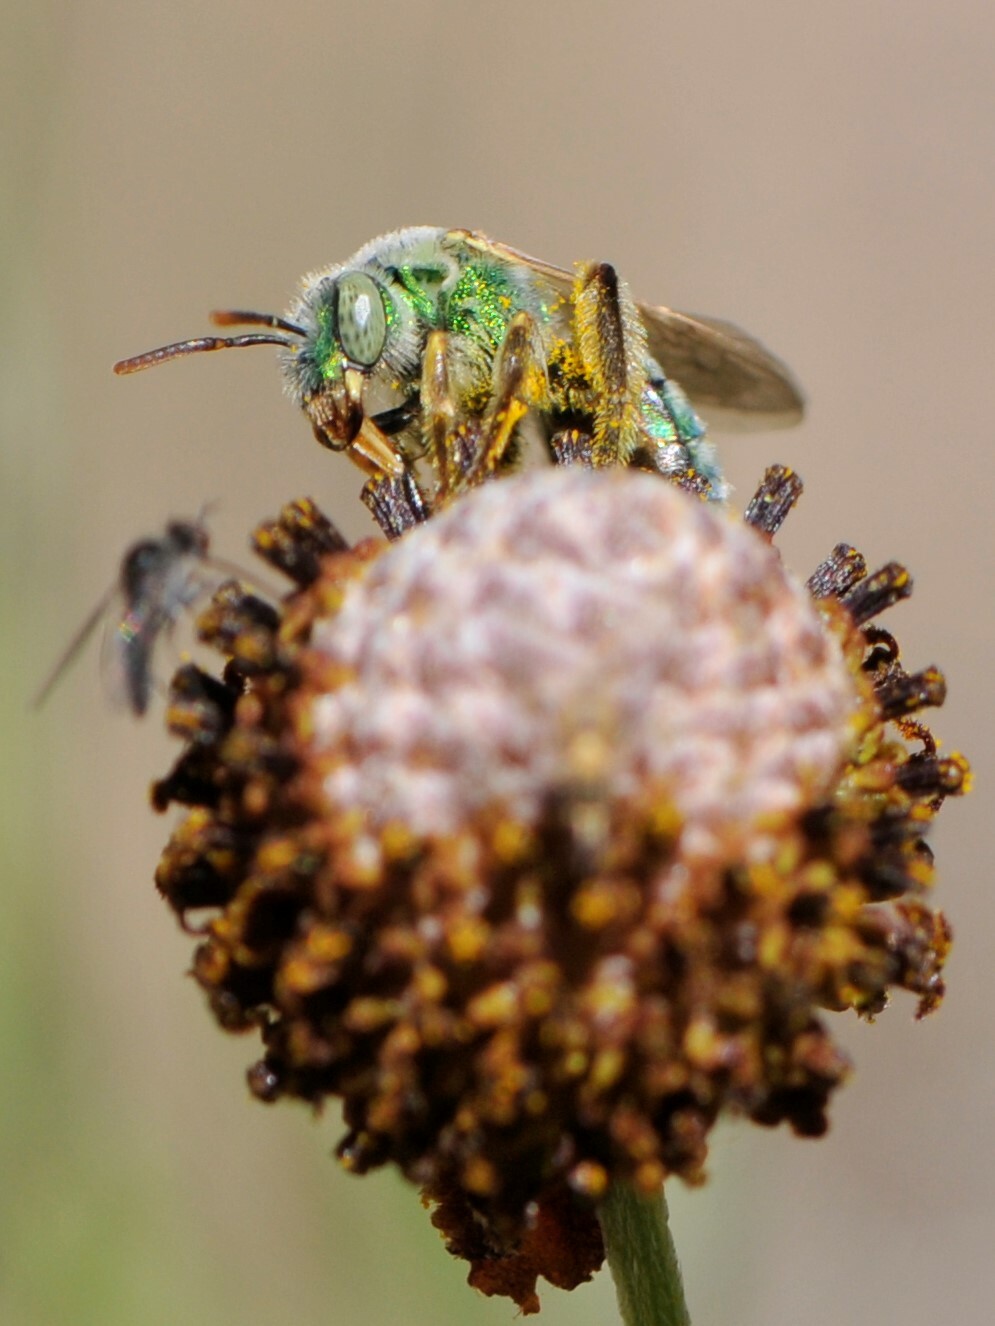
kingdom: Animalia
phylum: Arthropoda
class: Insecta
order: Hymenoptera
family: Halictidae
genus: Agapostemon
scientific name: Agapostemon
